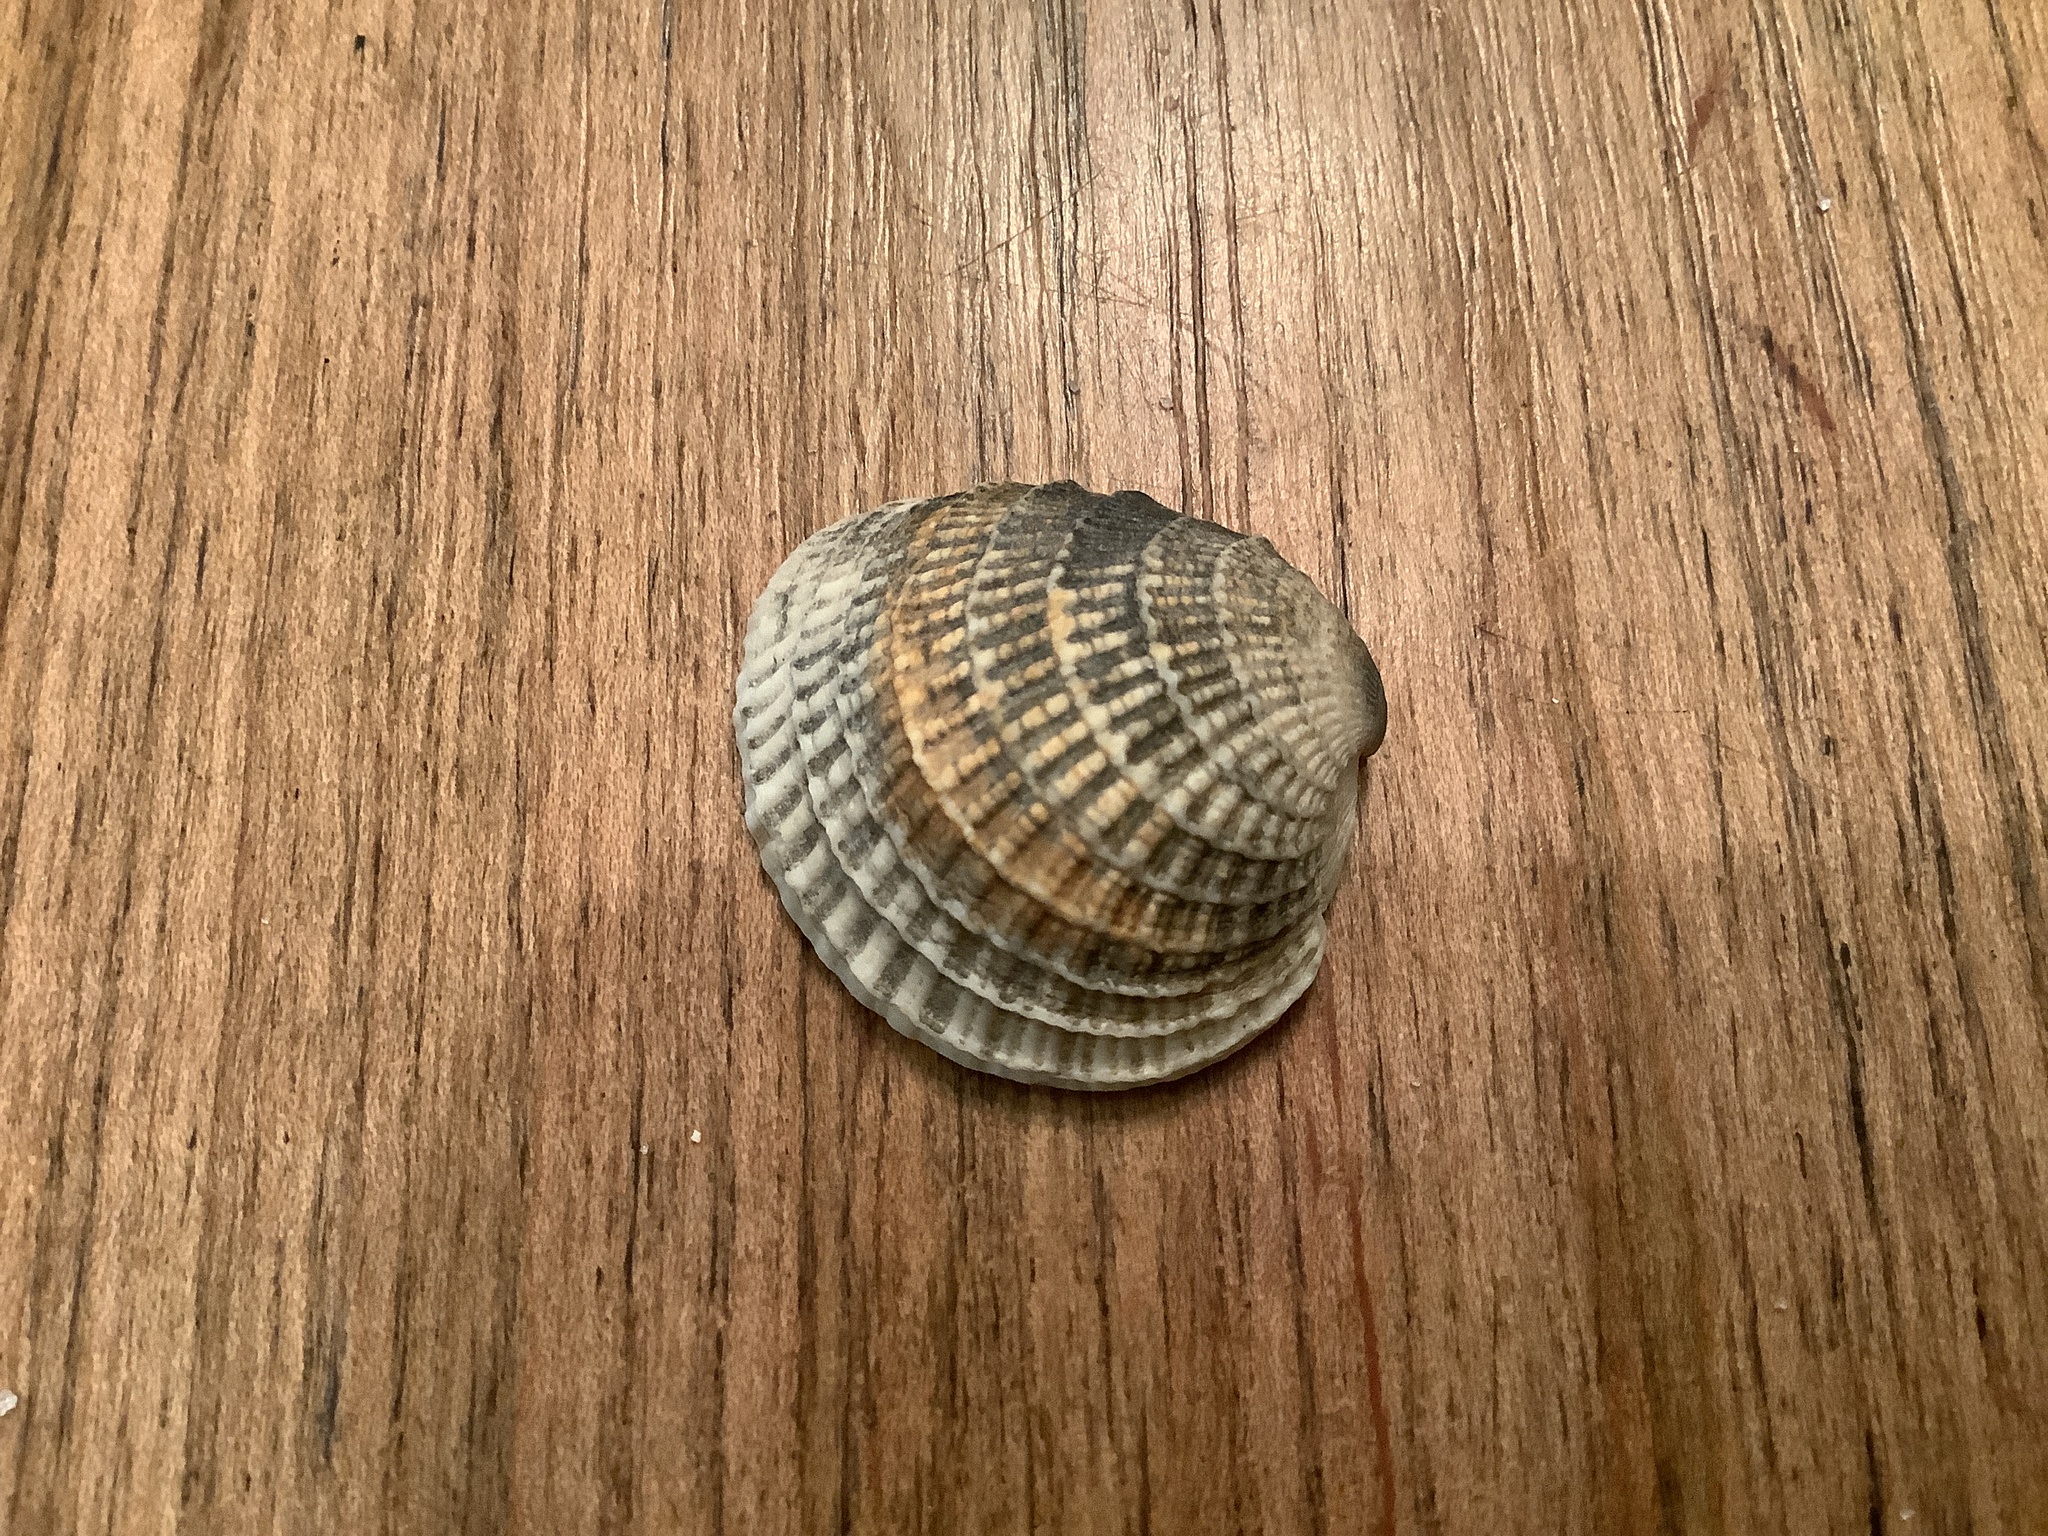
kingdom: Animalia
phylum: Mollusca
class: Bivalvia
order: Venerida
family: Veneridae
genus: Chione
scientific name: Chione elevata
